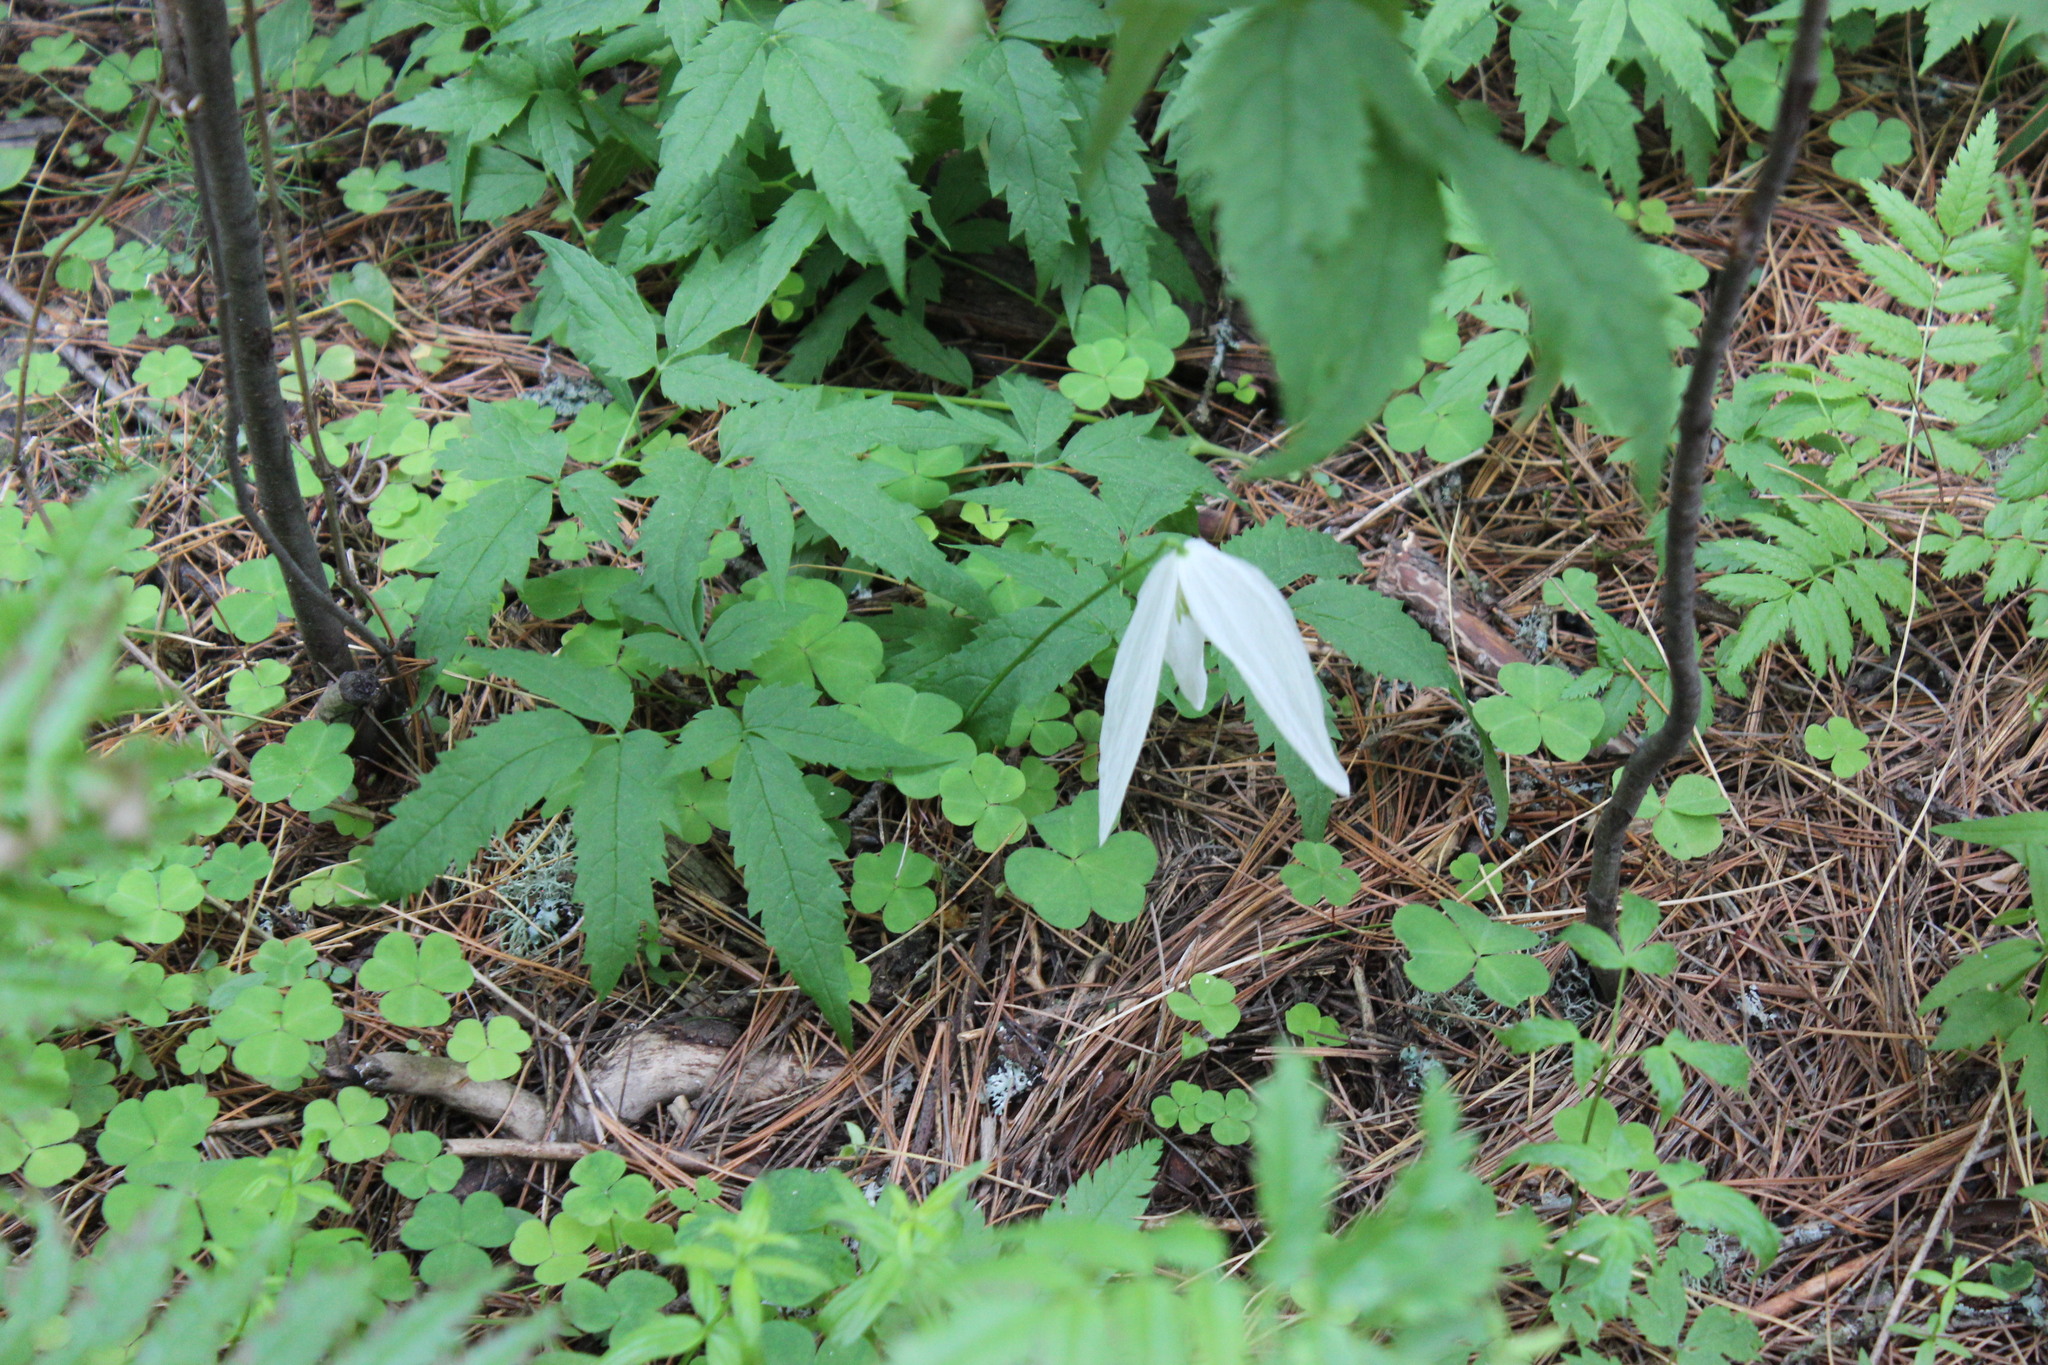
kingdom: Plantae
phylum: Tracheophyta
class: Magnoliopsida
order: Ranunculales
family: Ranunculaceae
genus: Clematis
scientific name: Clematis sibirica
